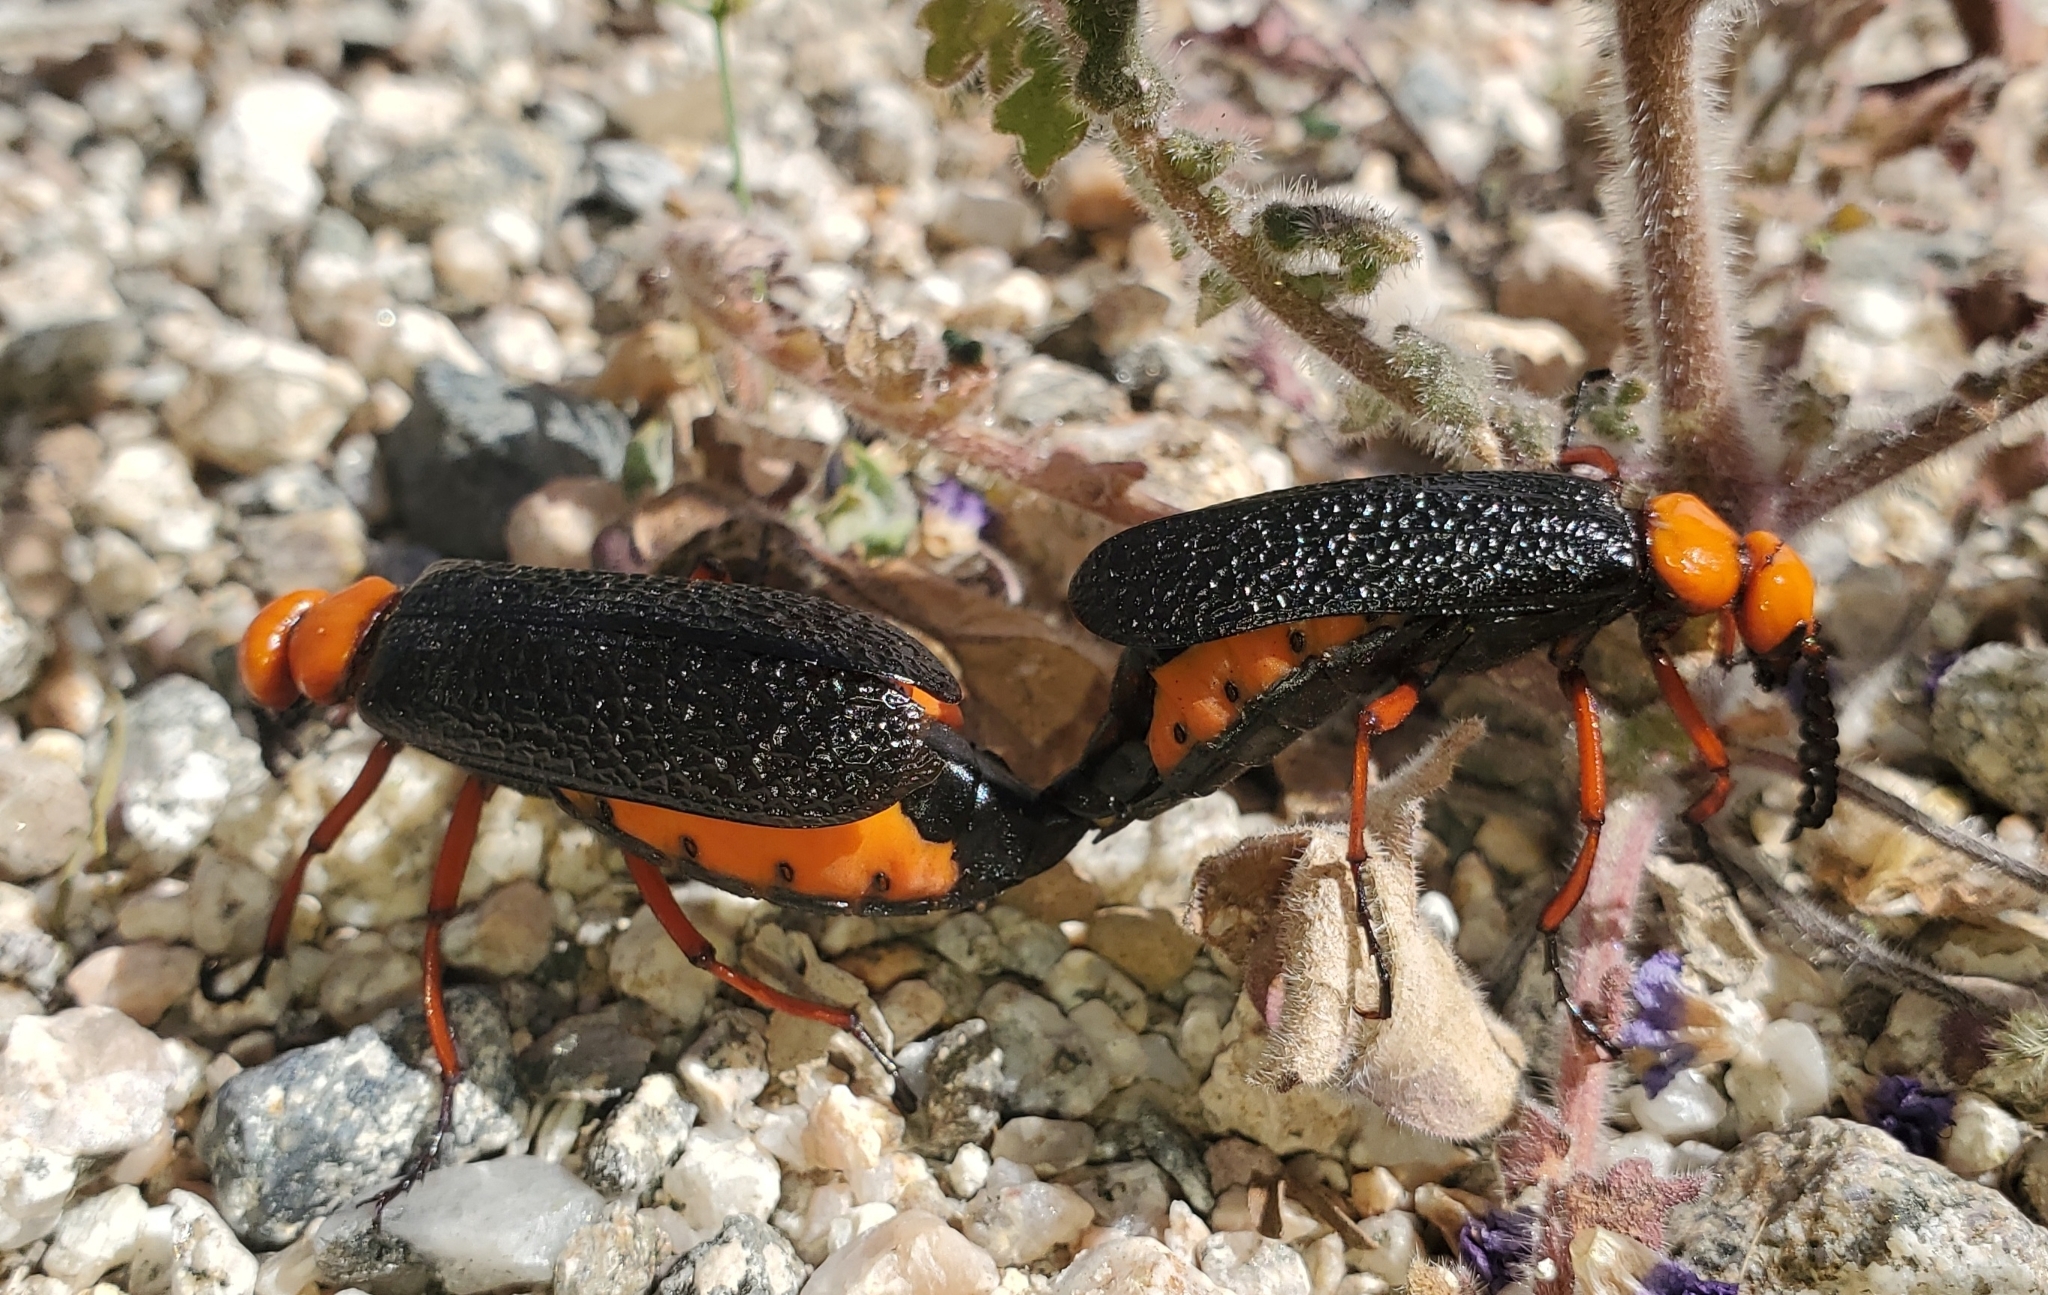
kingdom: Animalia
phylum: Arthropoda
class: Insecta
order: Coleoptera
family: Meloidae
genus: Lytta
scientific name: Lytta magister
